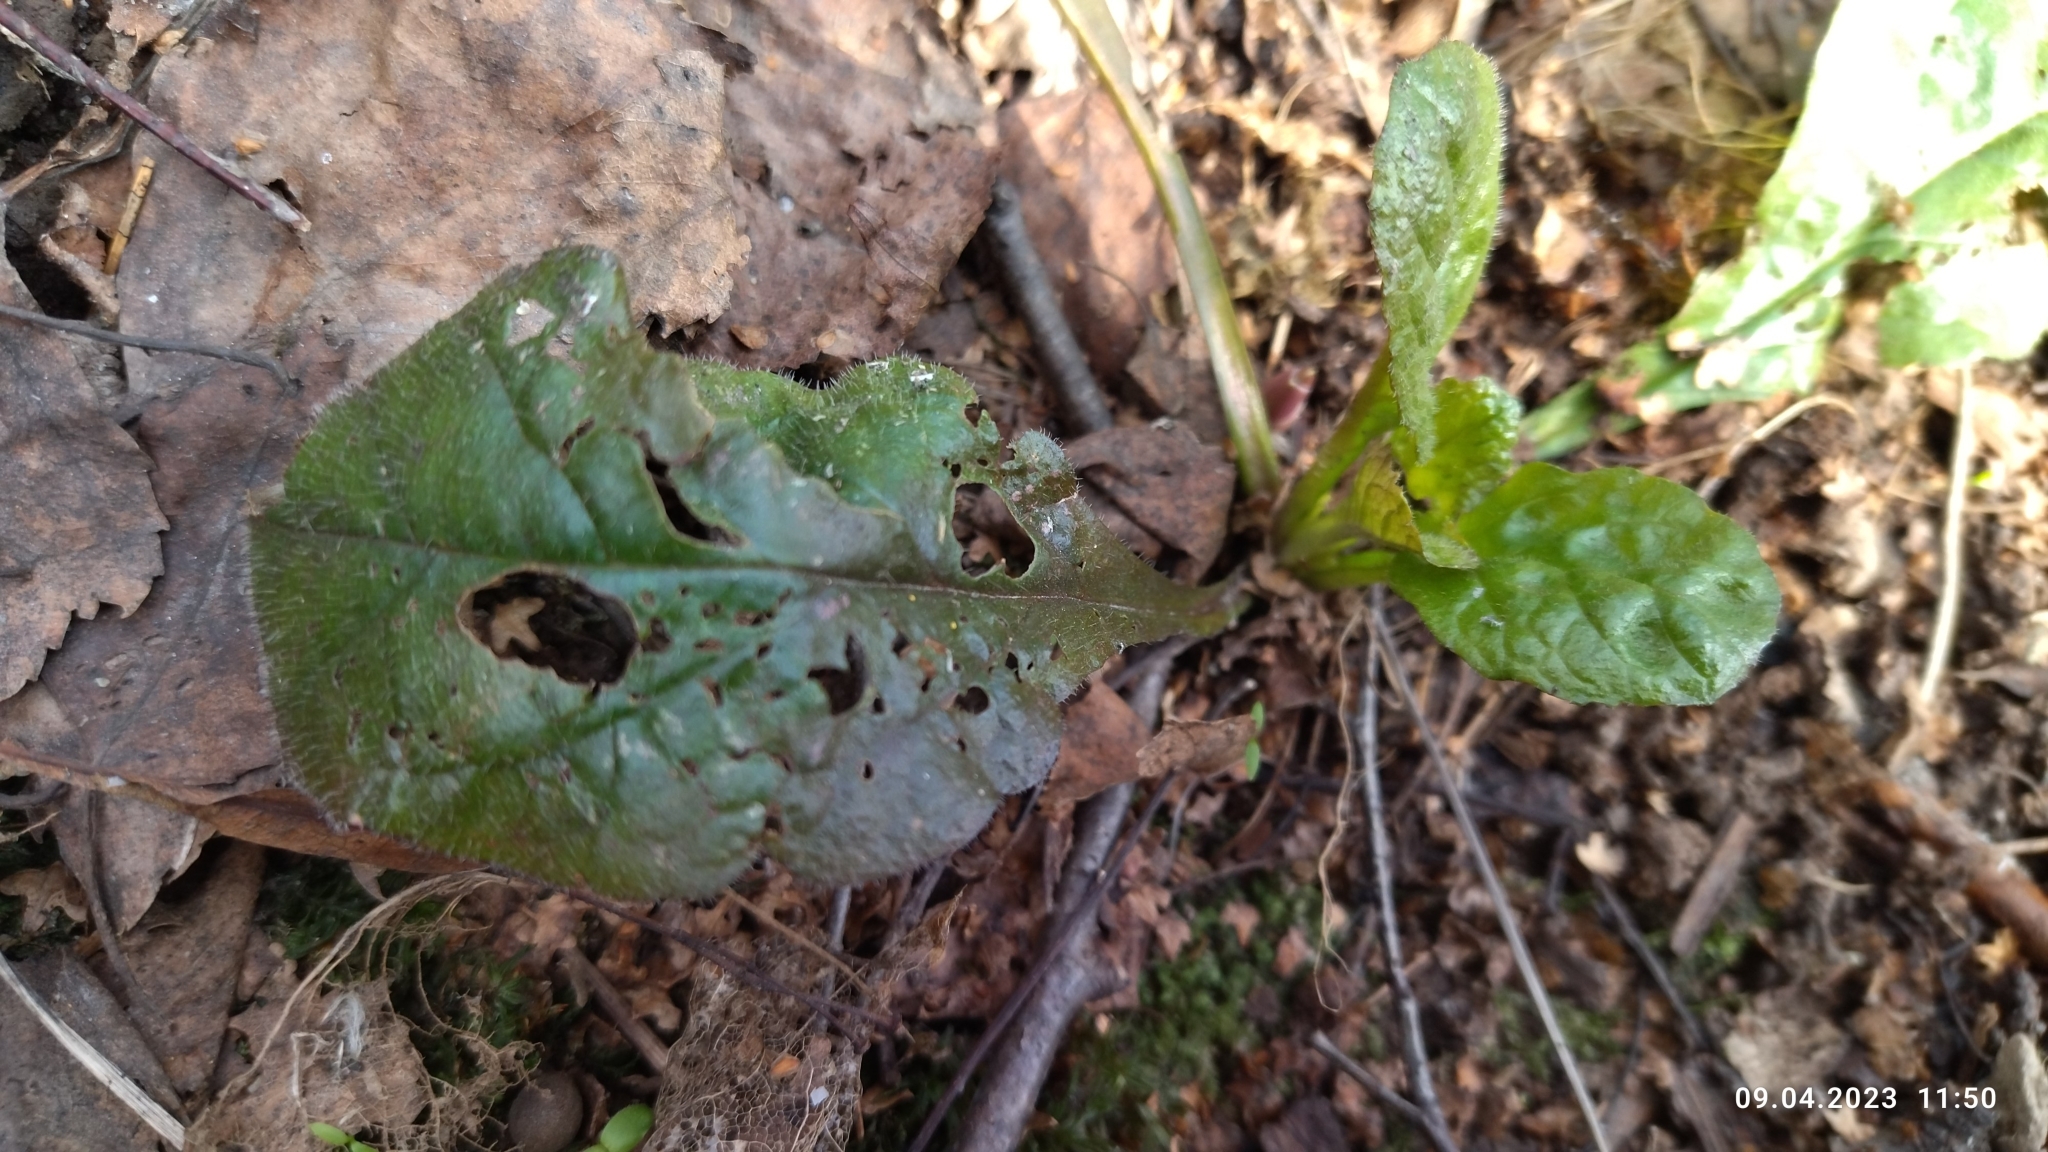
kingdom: Plantae
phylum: Tracheophyta
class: Magnoliopsida
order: Lamiales
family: Lamiaceae
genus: Ajuga
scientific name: Ajuga reptans
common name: Bugle
